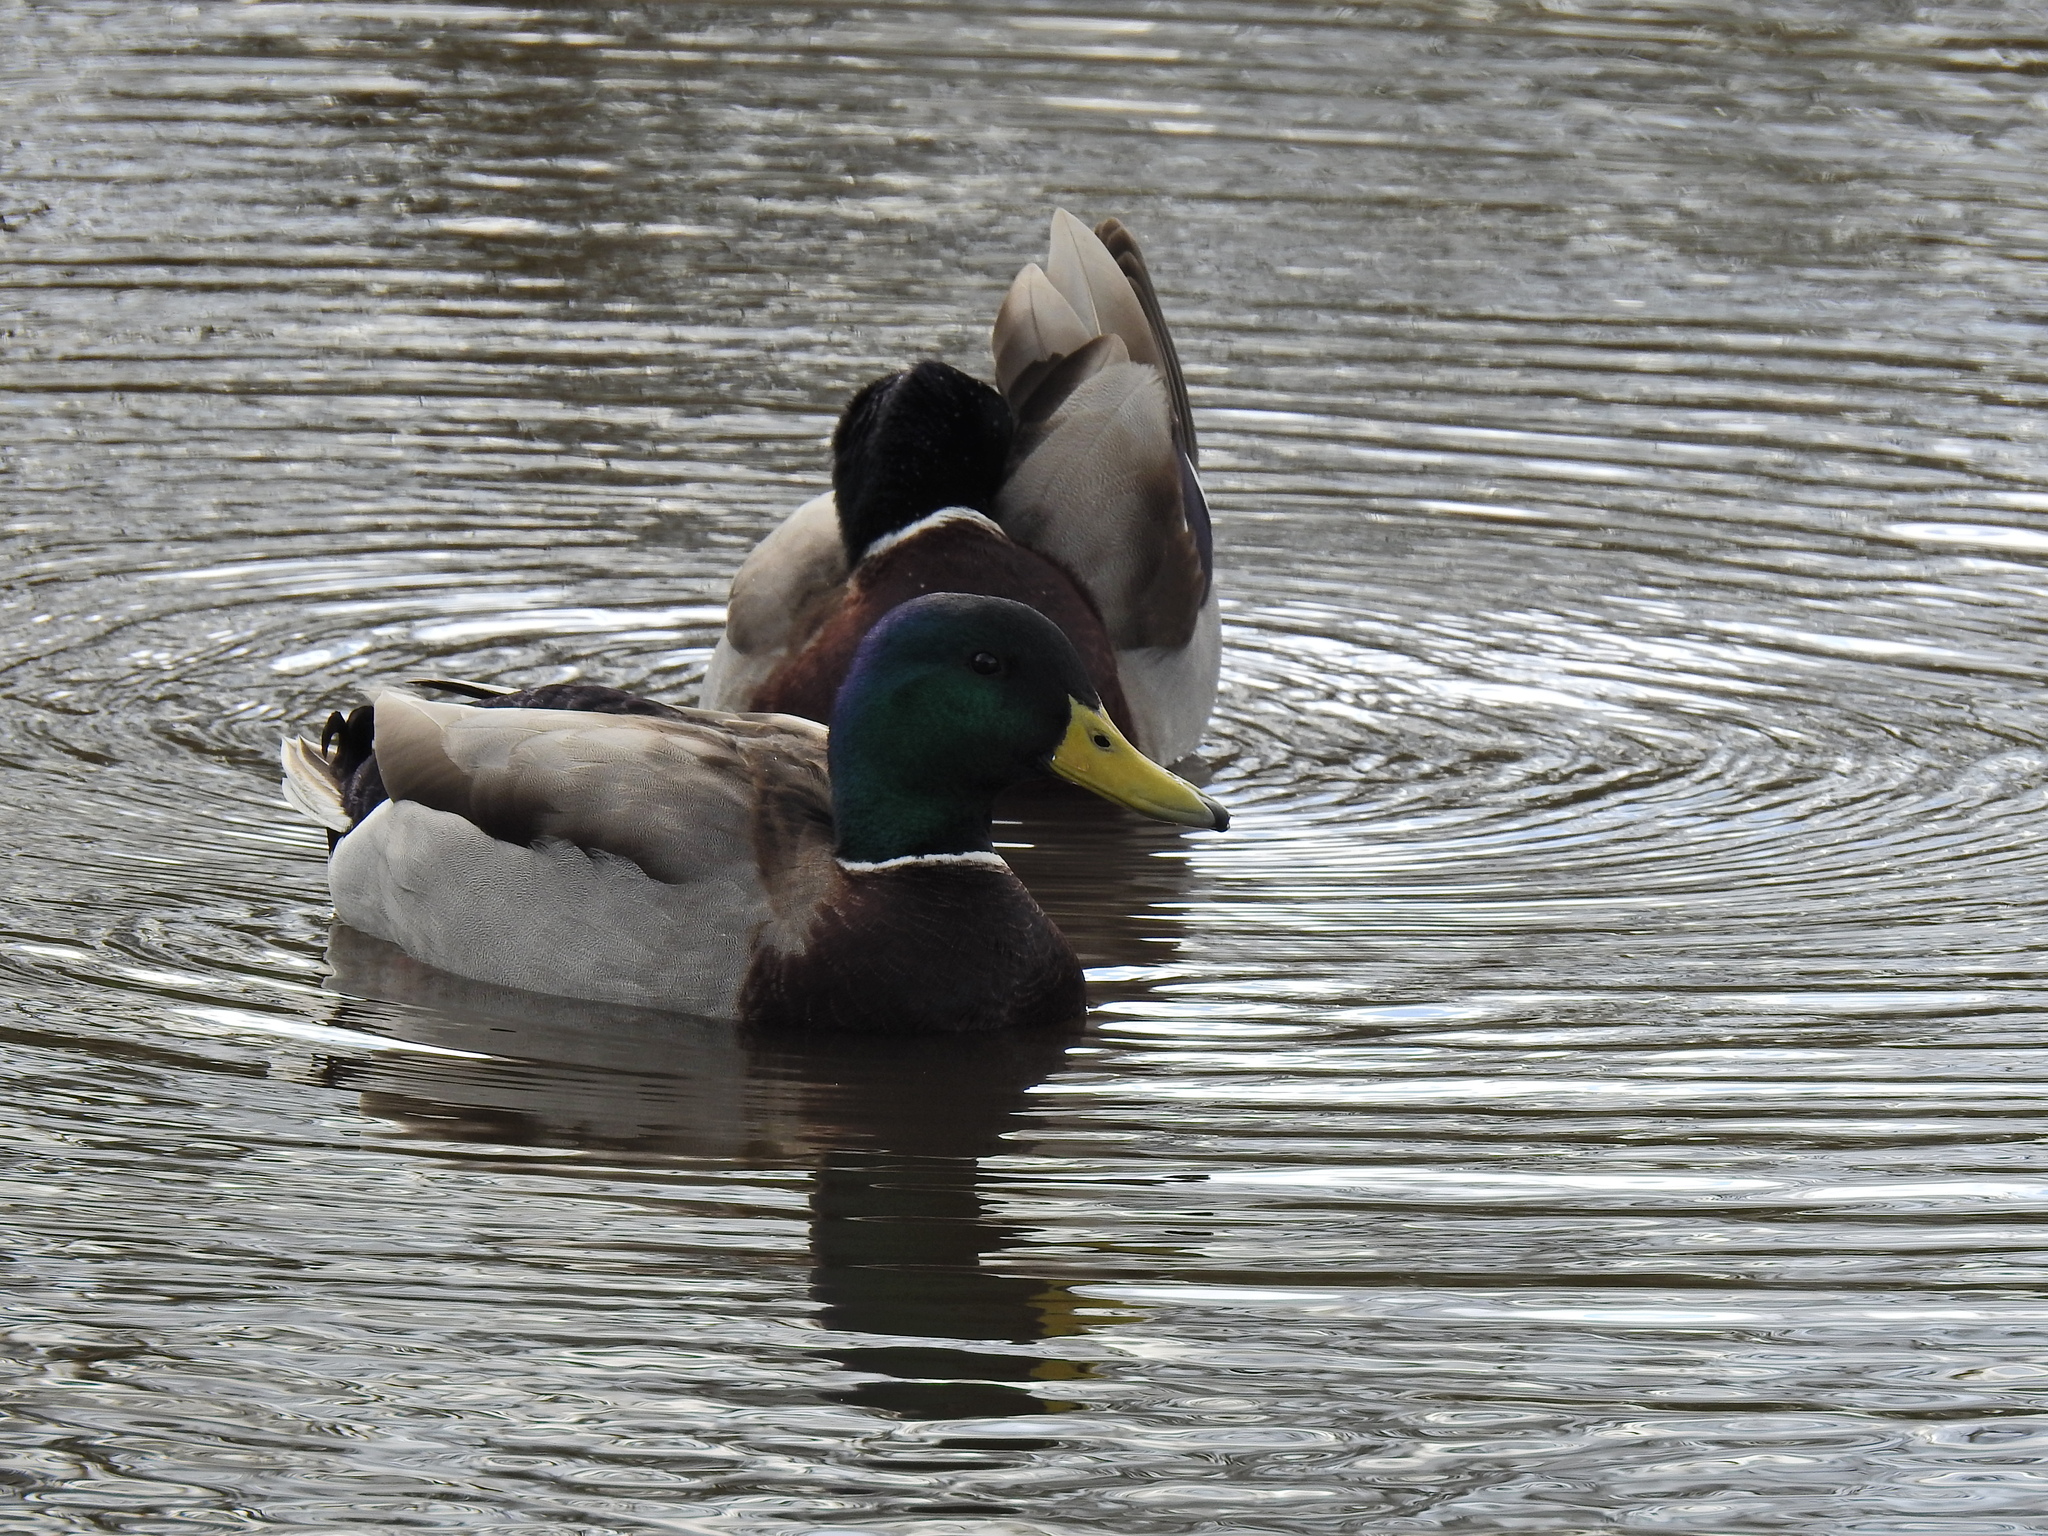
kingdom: Animalia
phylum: Chordata
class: Aves
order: Anseriformes
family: Anatidae
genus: Anas
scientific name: Anas platyrhynchos
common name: Mallard
